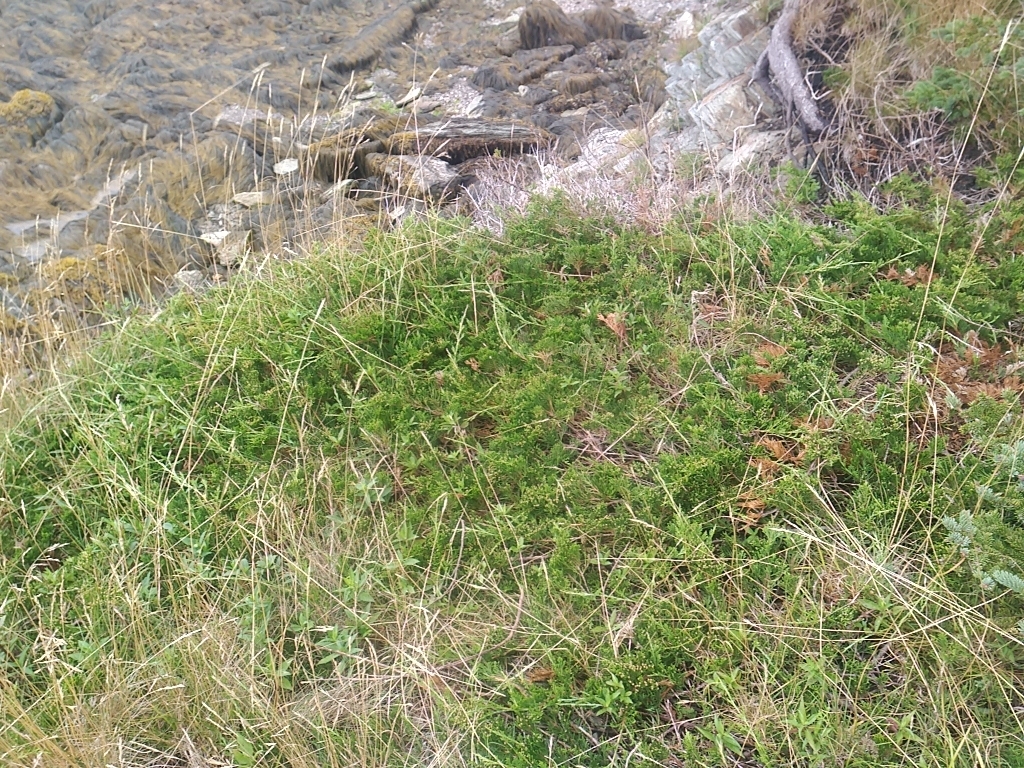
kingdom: Plantae
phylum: Tracheophyta
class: Pinopsida
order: Pinales
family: Cupressaceae
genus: Juniperus
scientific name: Juniperus horizontalis
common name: Creeping juniper
